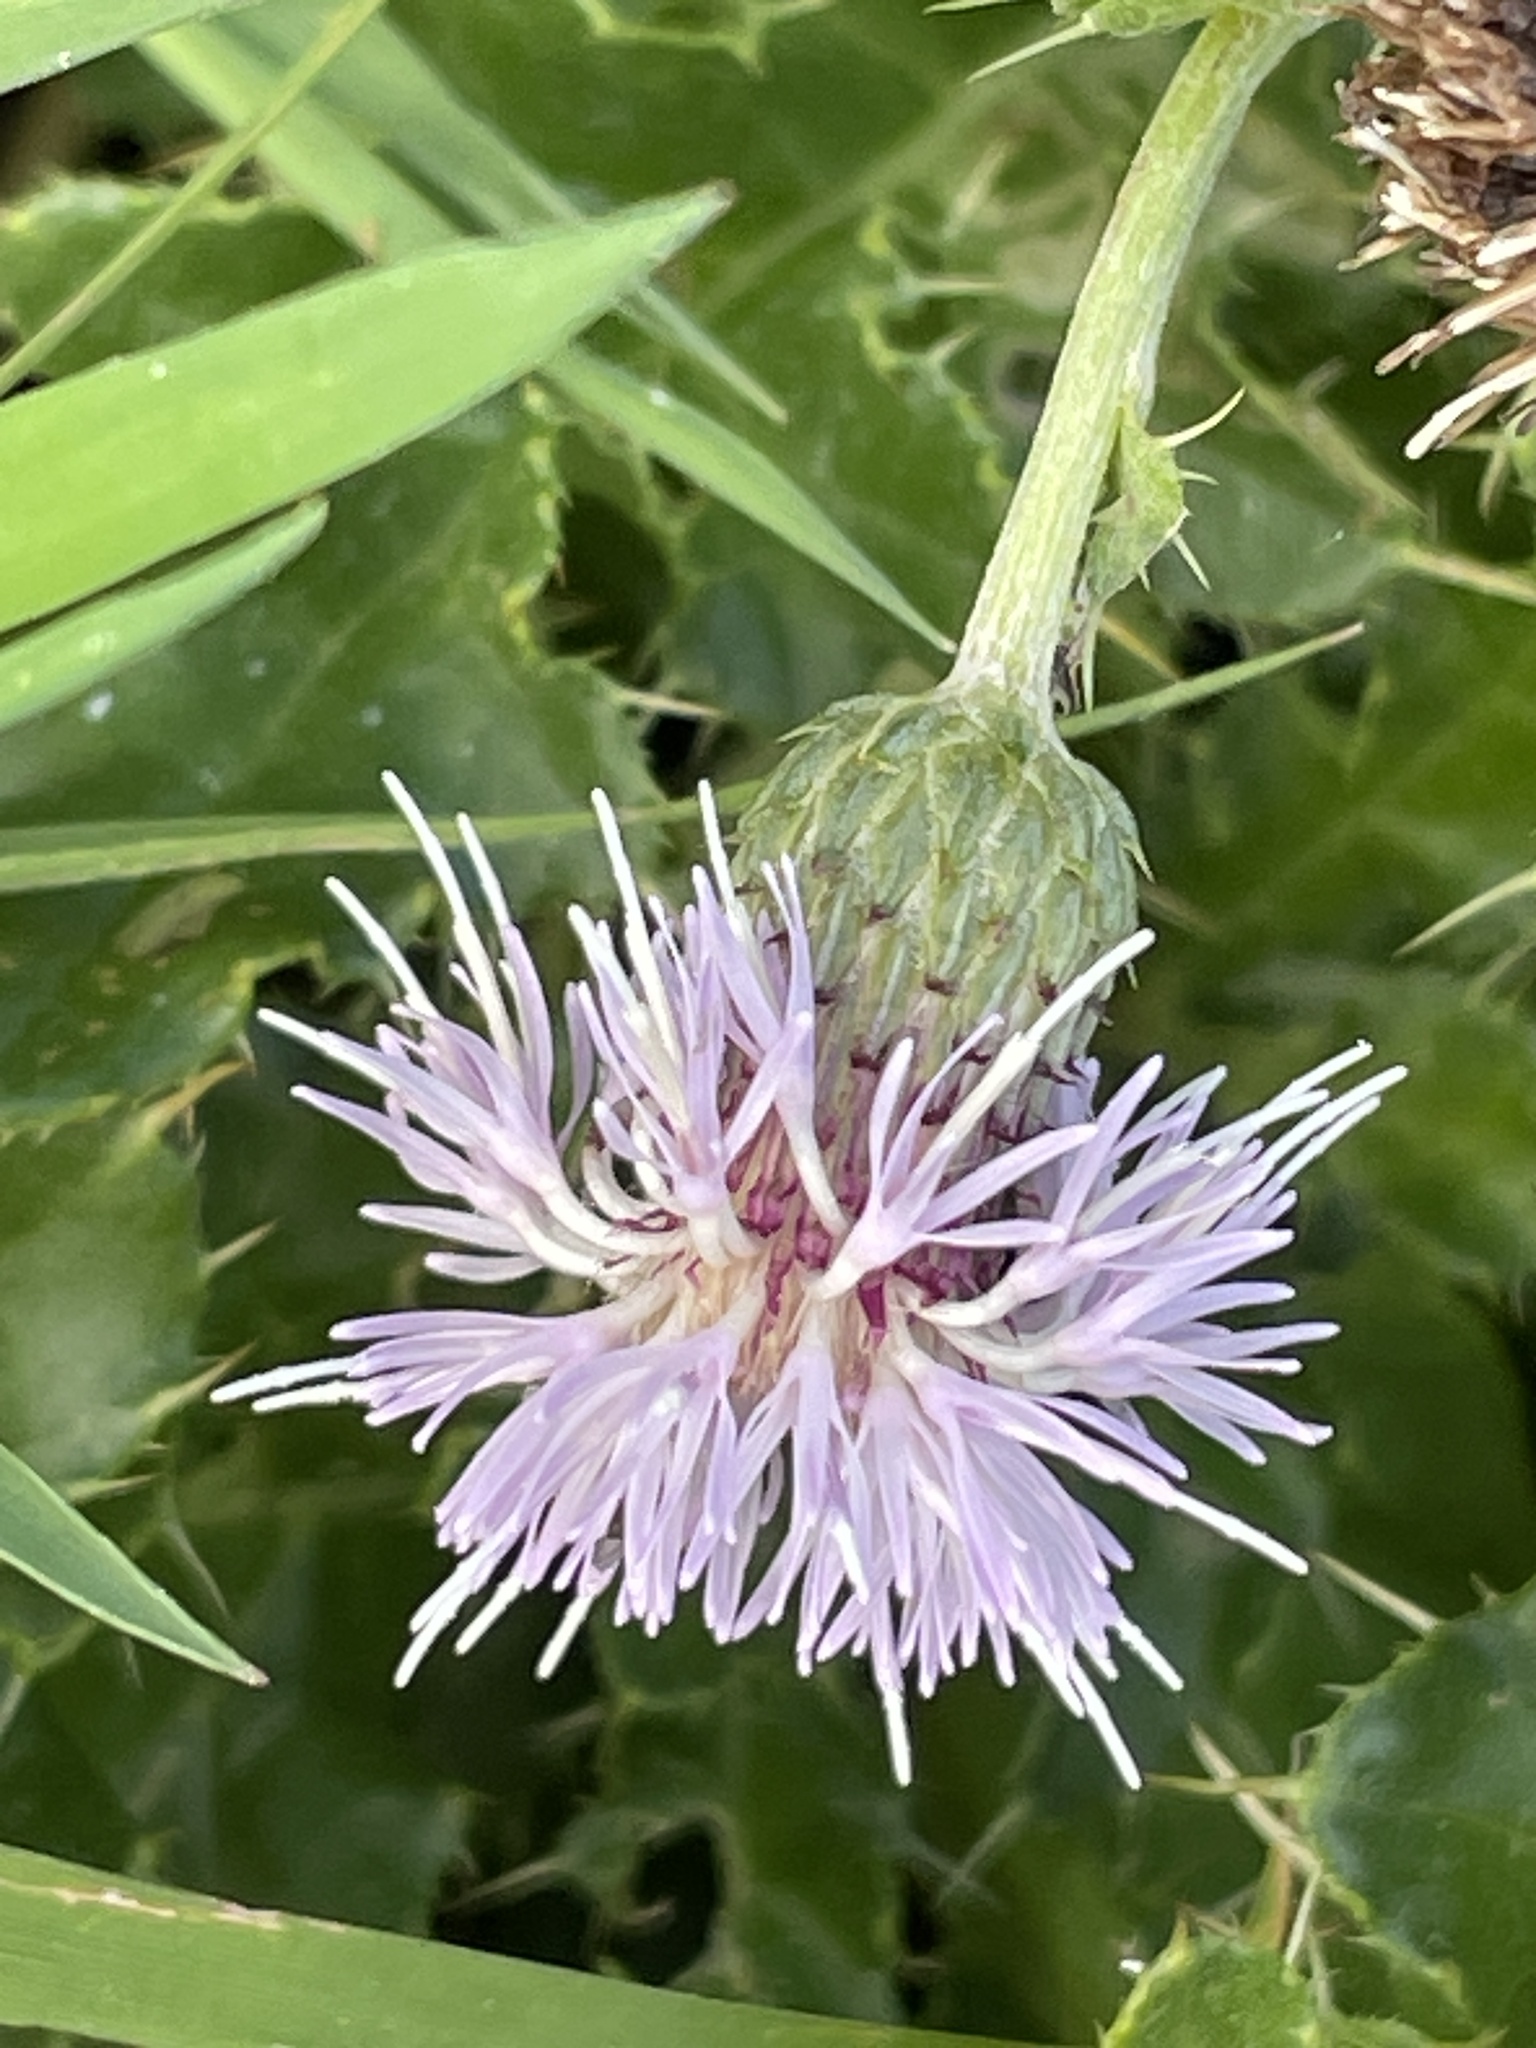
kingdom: Plantae
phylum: Tracheophyta
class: Magnoliopsida
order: Asterales
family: Asteraceae
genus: Cirsium
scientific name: Cirsium arvense
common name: Creeping thistle
